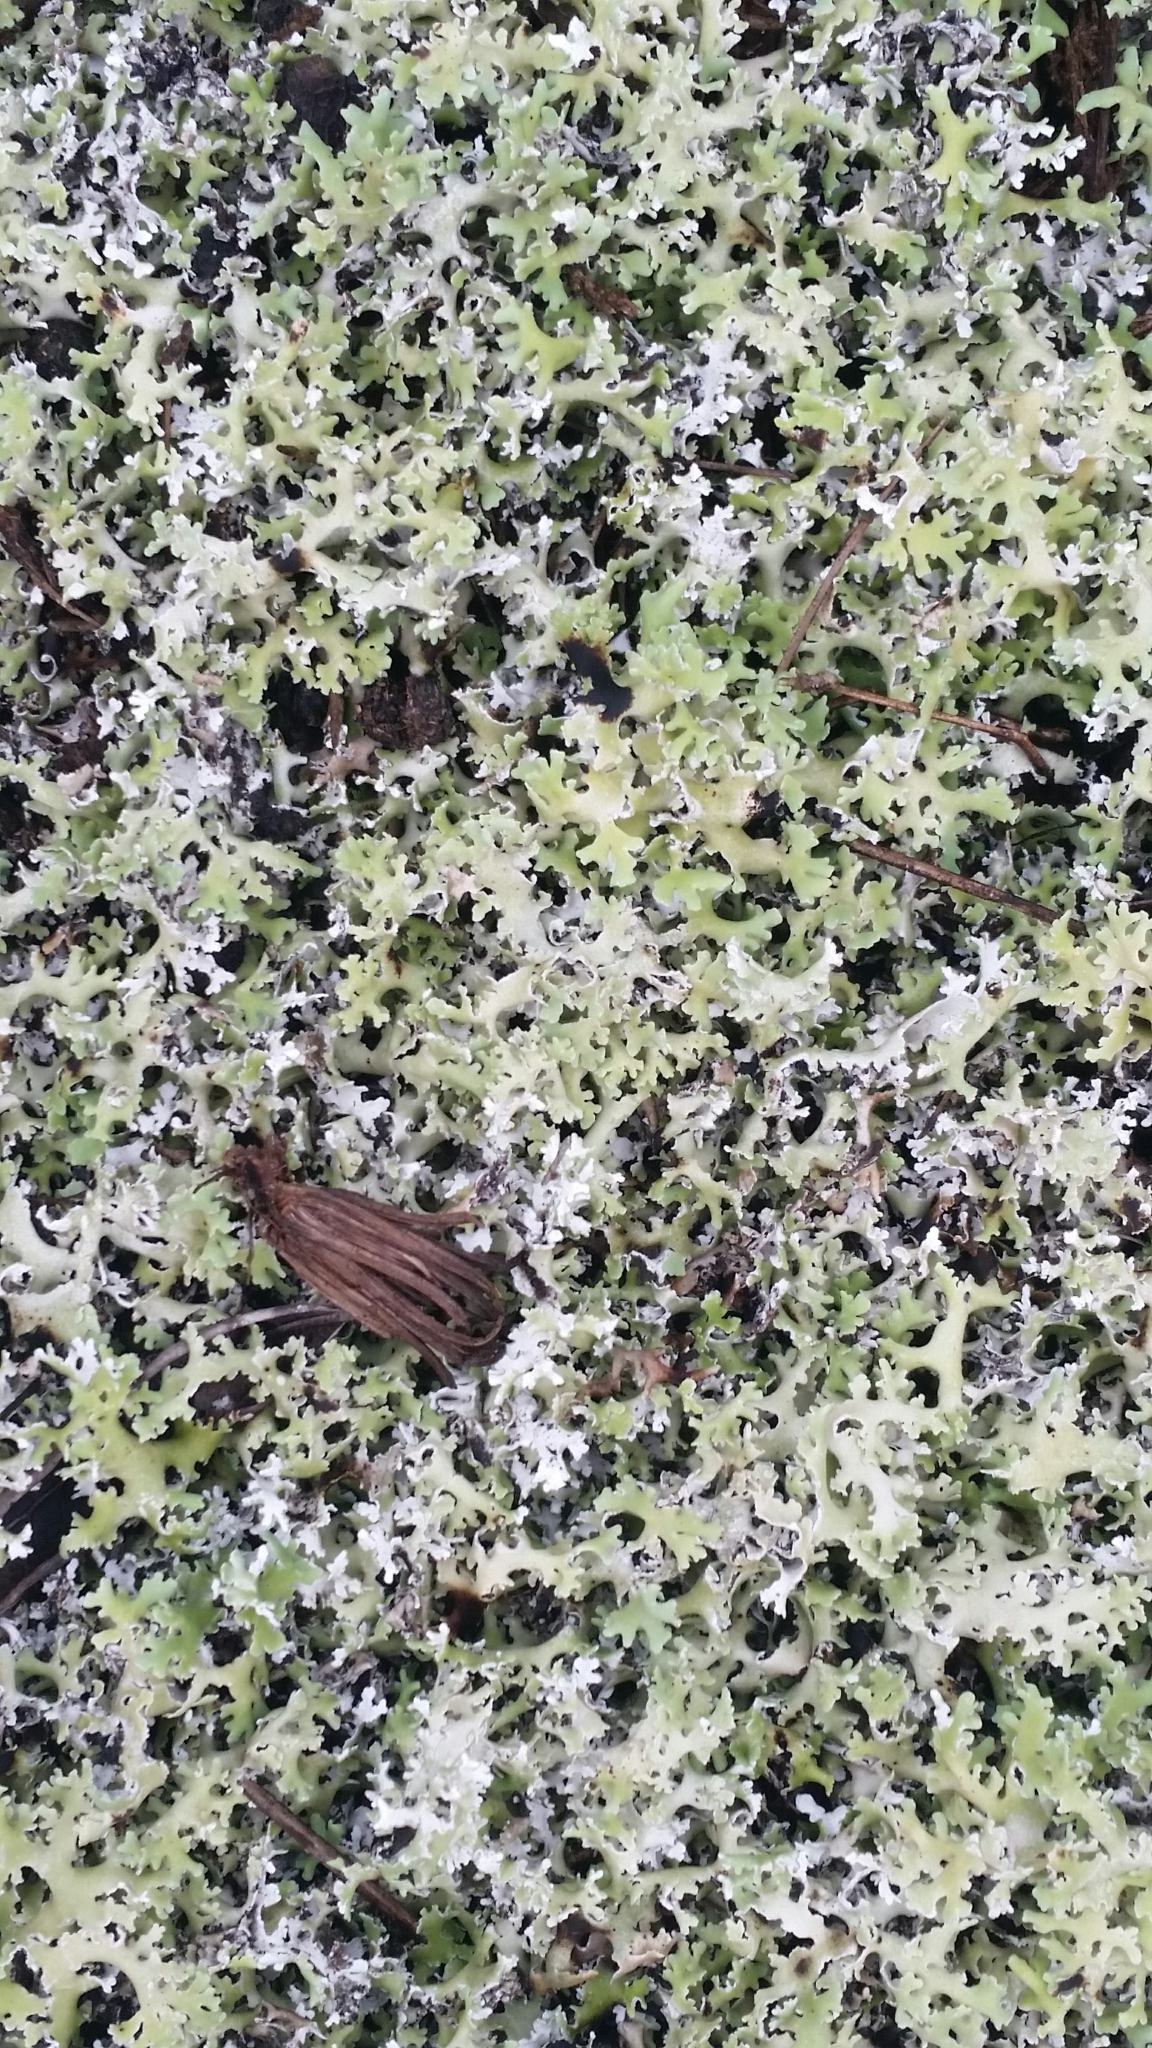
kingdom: Fungi
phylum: Ascomycota
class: Lecanoromycetes
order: Lecanorales
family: Cladoniaceae
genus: Cladonia
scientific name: Cladonia prostrata
